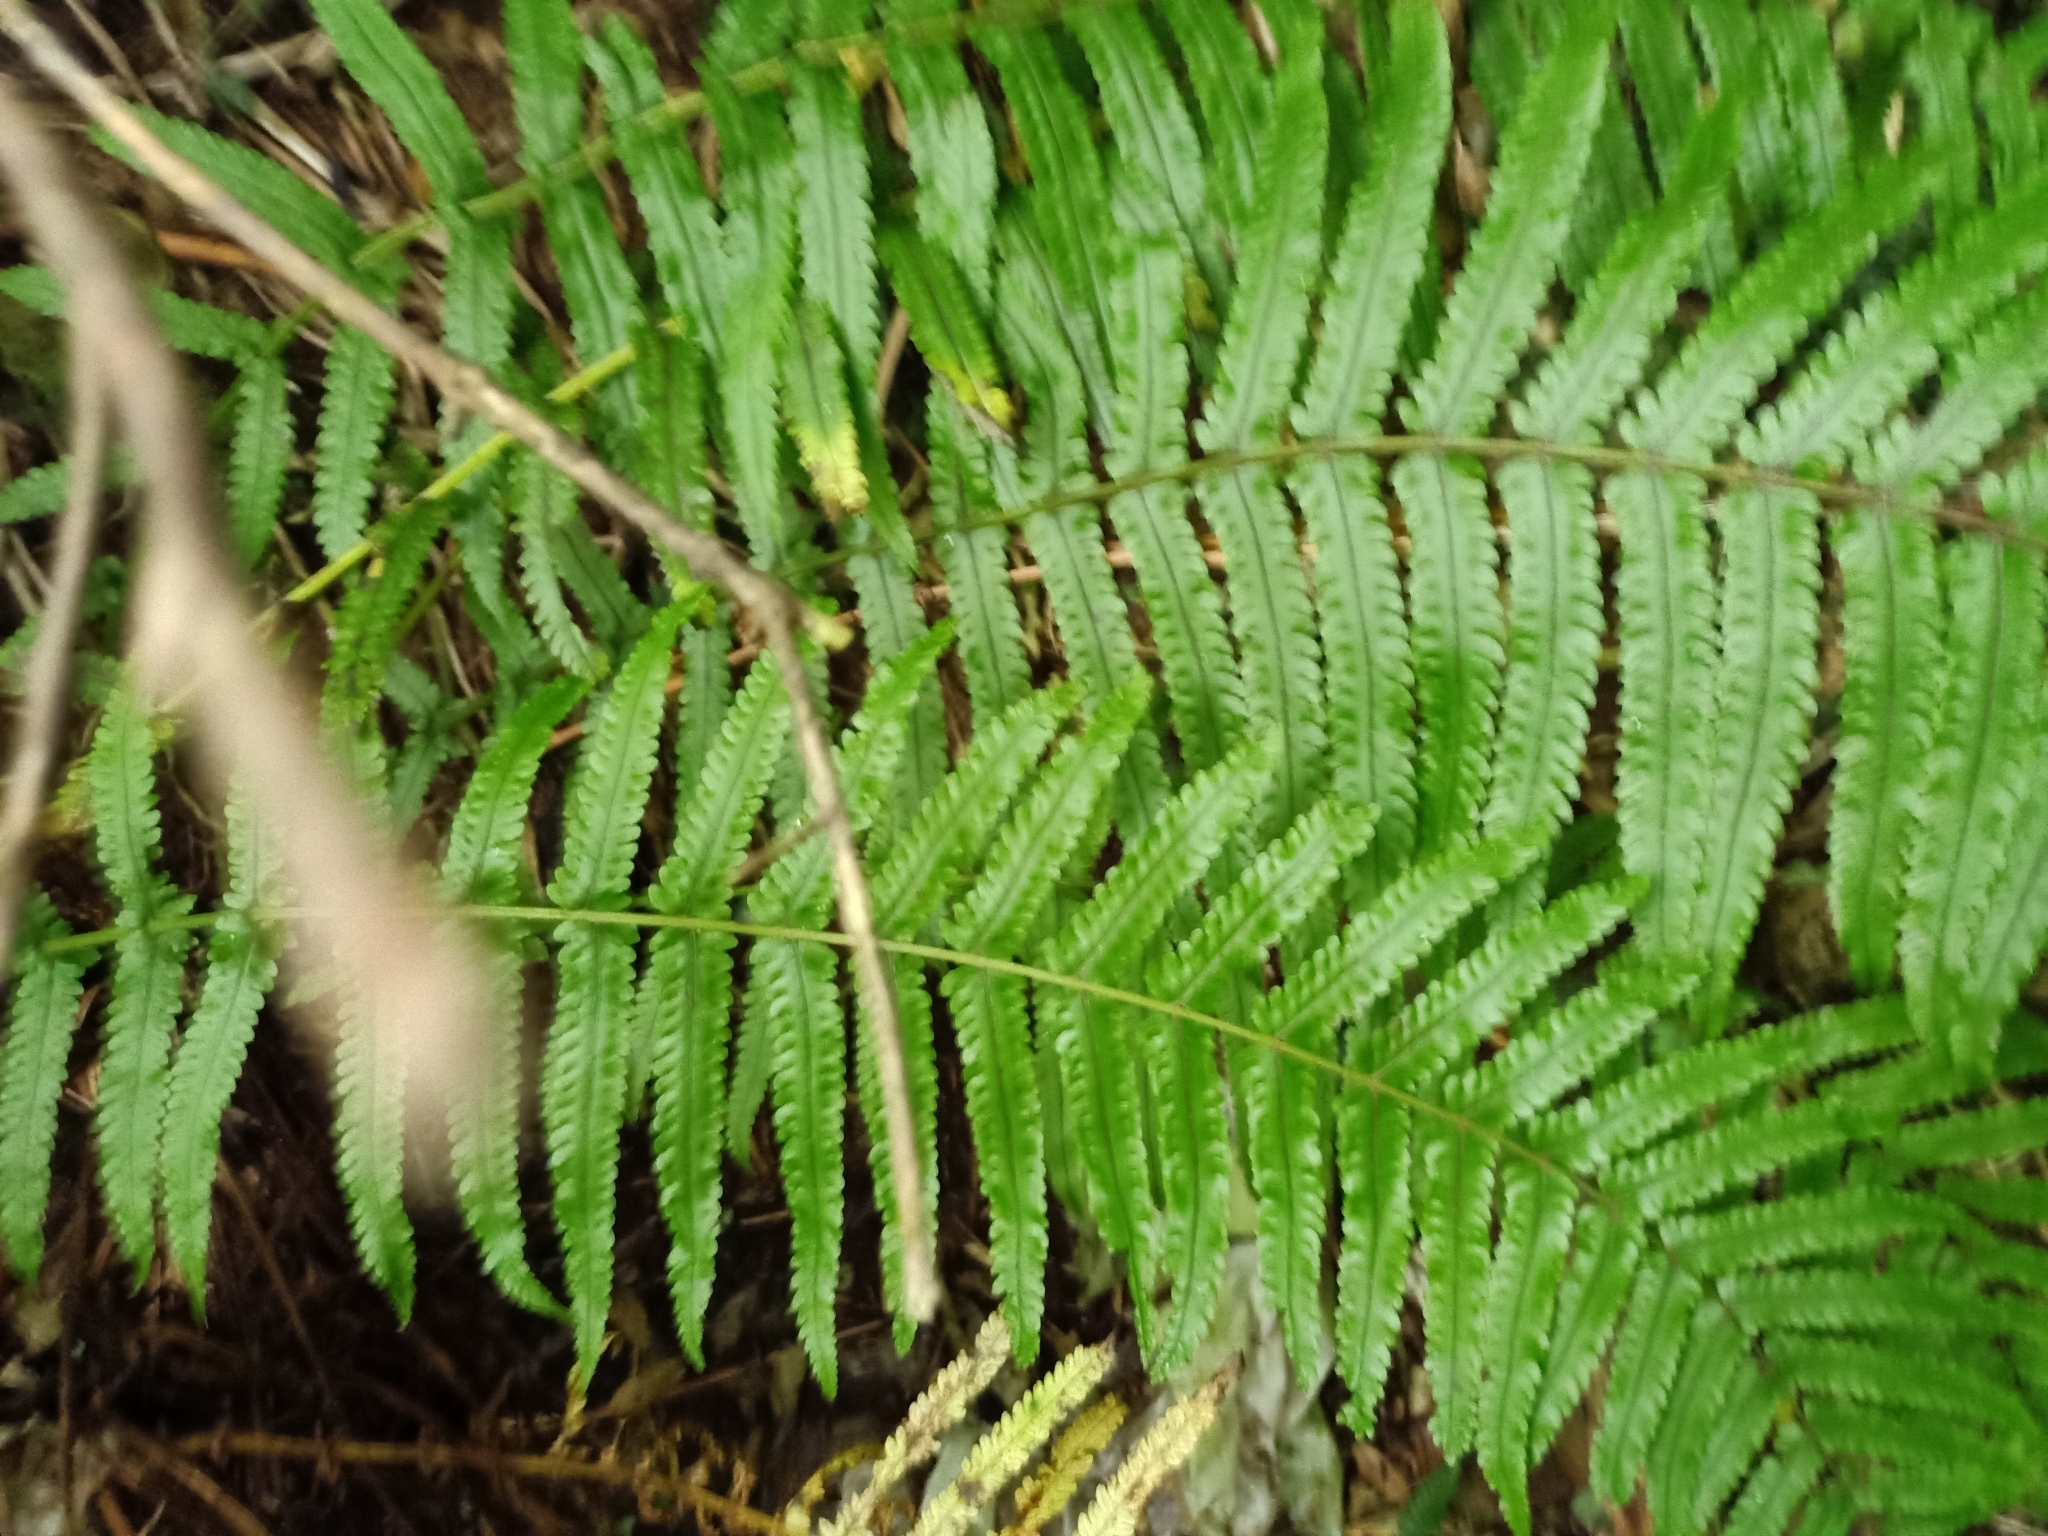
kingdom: Plantae
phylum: Tracheophyta
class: Polypodiopsida
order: Polypodiales
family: Thelypteridaceae
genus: Pakau
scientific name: Pakau pennigera
